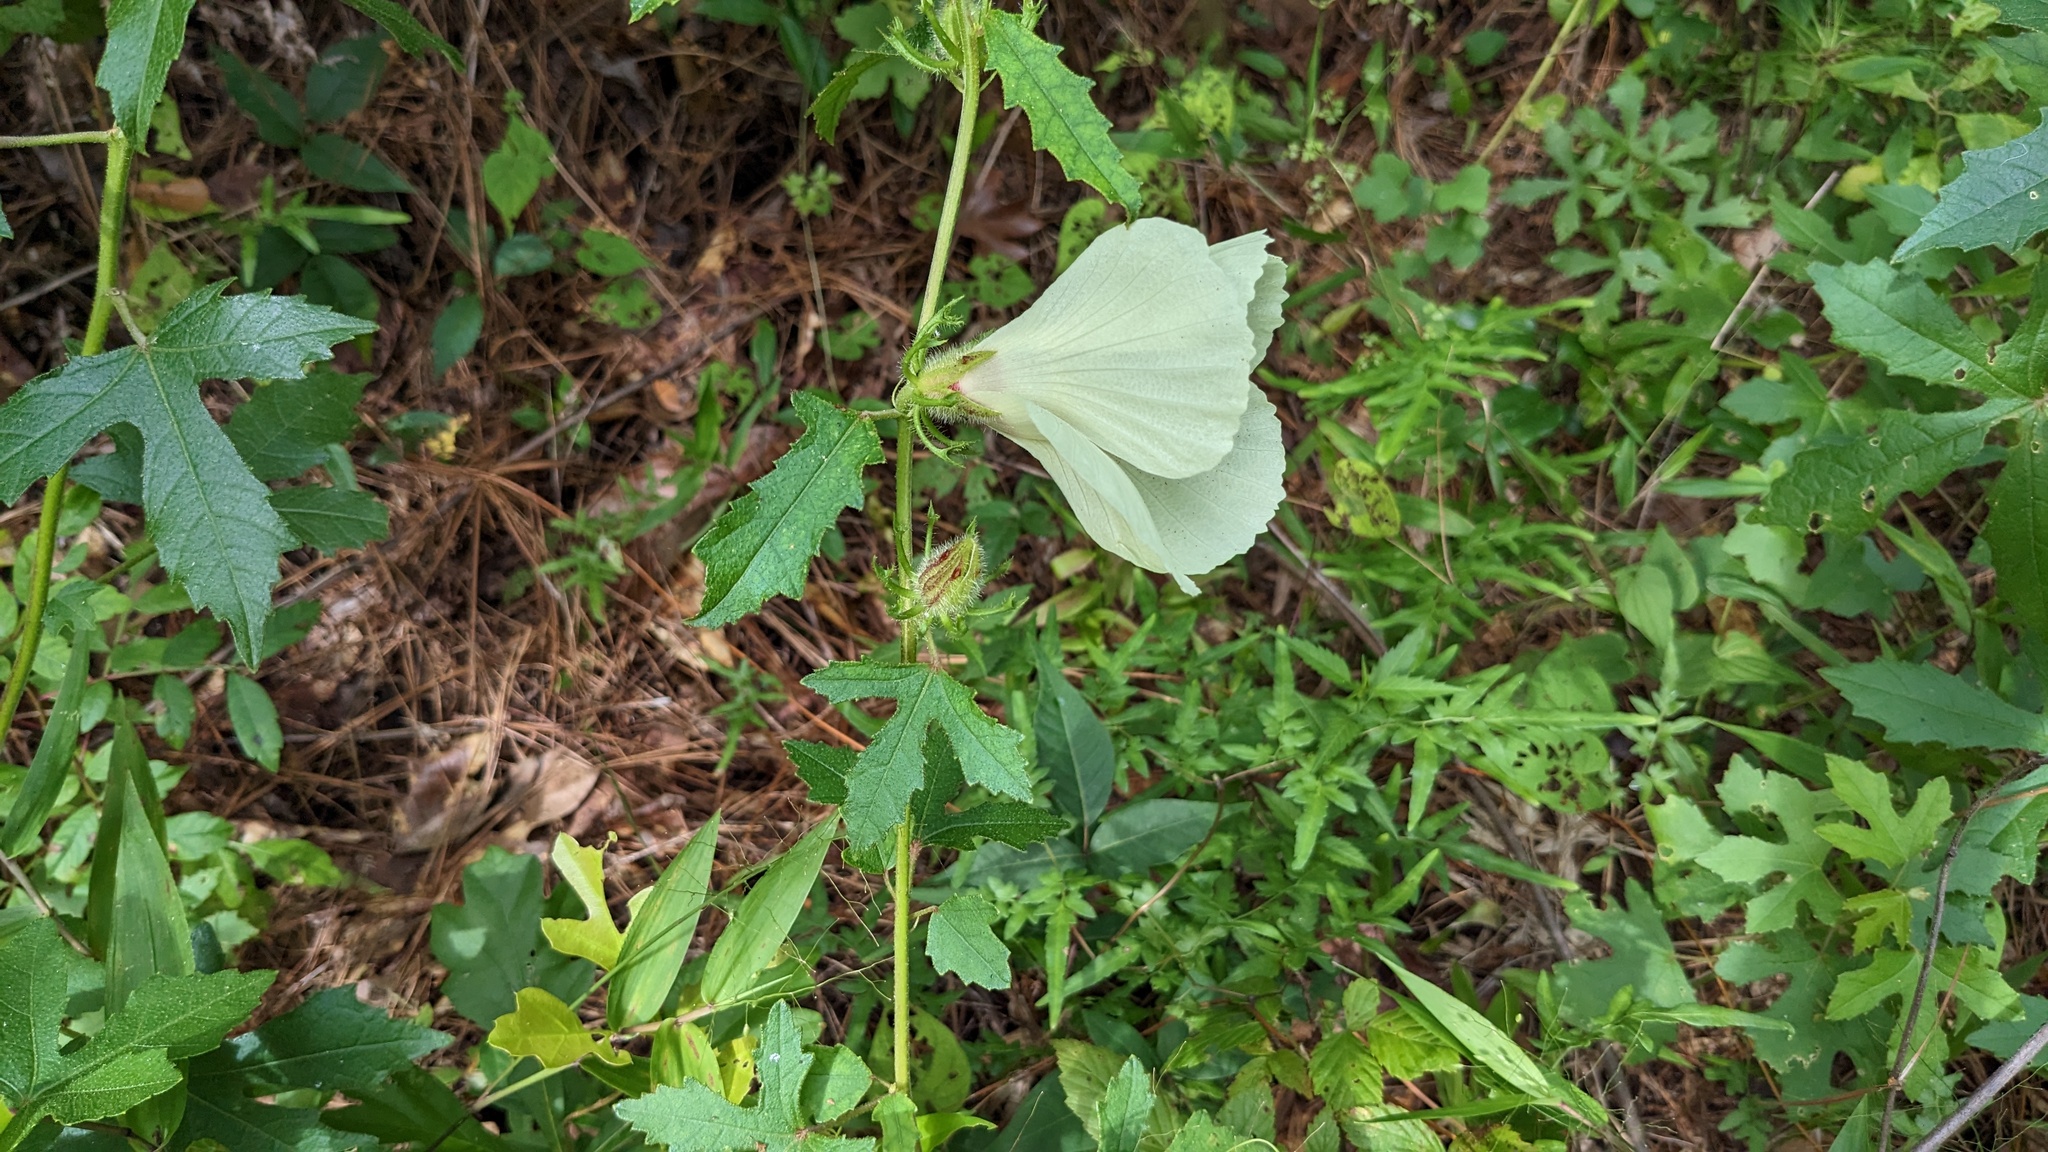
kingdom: Plantae
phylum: Tracheophyta
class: Magnoliopsida
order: Malvales
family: Malvaceae
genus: Hibiscus
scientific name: Hibiscus aculeatus
